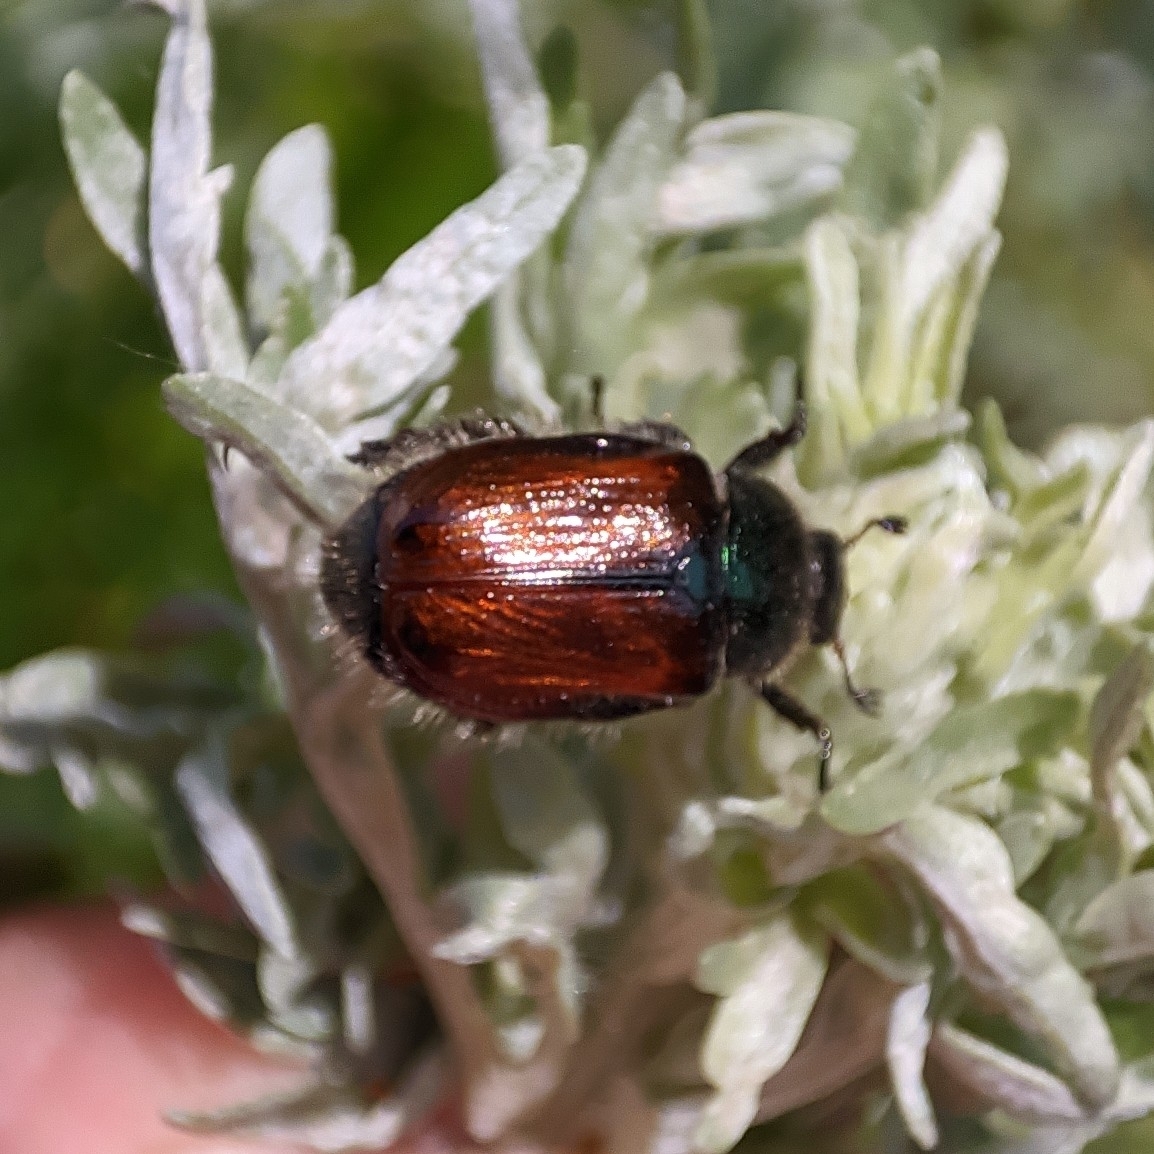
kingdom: Animalia
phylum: Arthropoda
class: Insecta
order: Coleoptera
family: Scarabaeidae
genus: Phyllopertha
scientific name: Phyllopertha horticola
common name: Garden chafer
